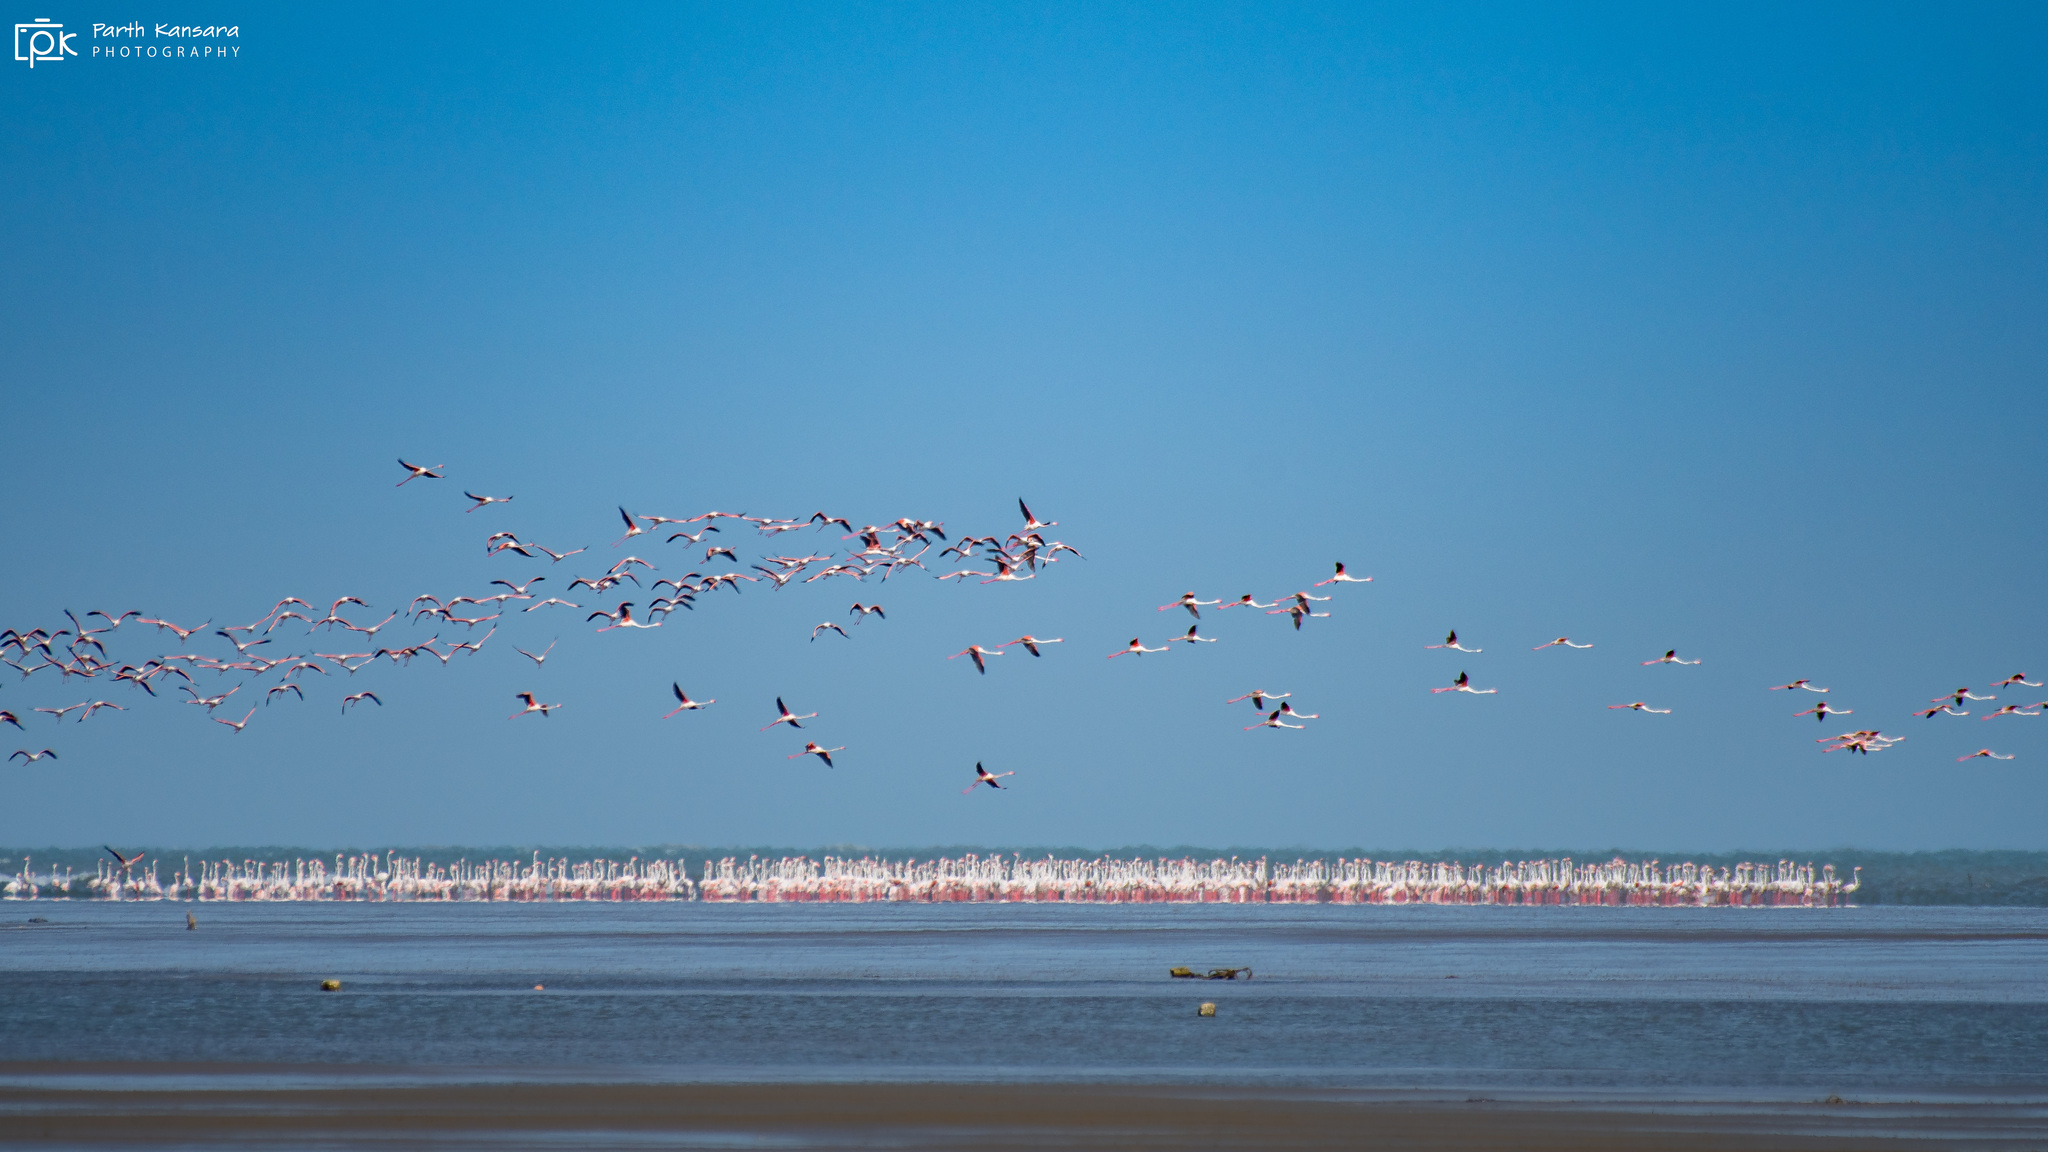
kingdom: Animalia
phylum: Chordata
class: Aves
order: Phoenicopteriformes
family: Phoenicopteridae
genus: Phoenicopterus
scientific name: Phoenicopterus roseus
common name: Greater flamingo
